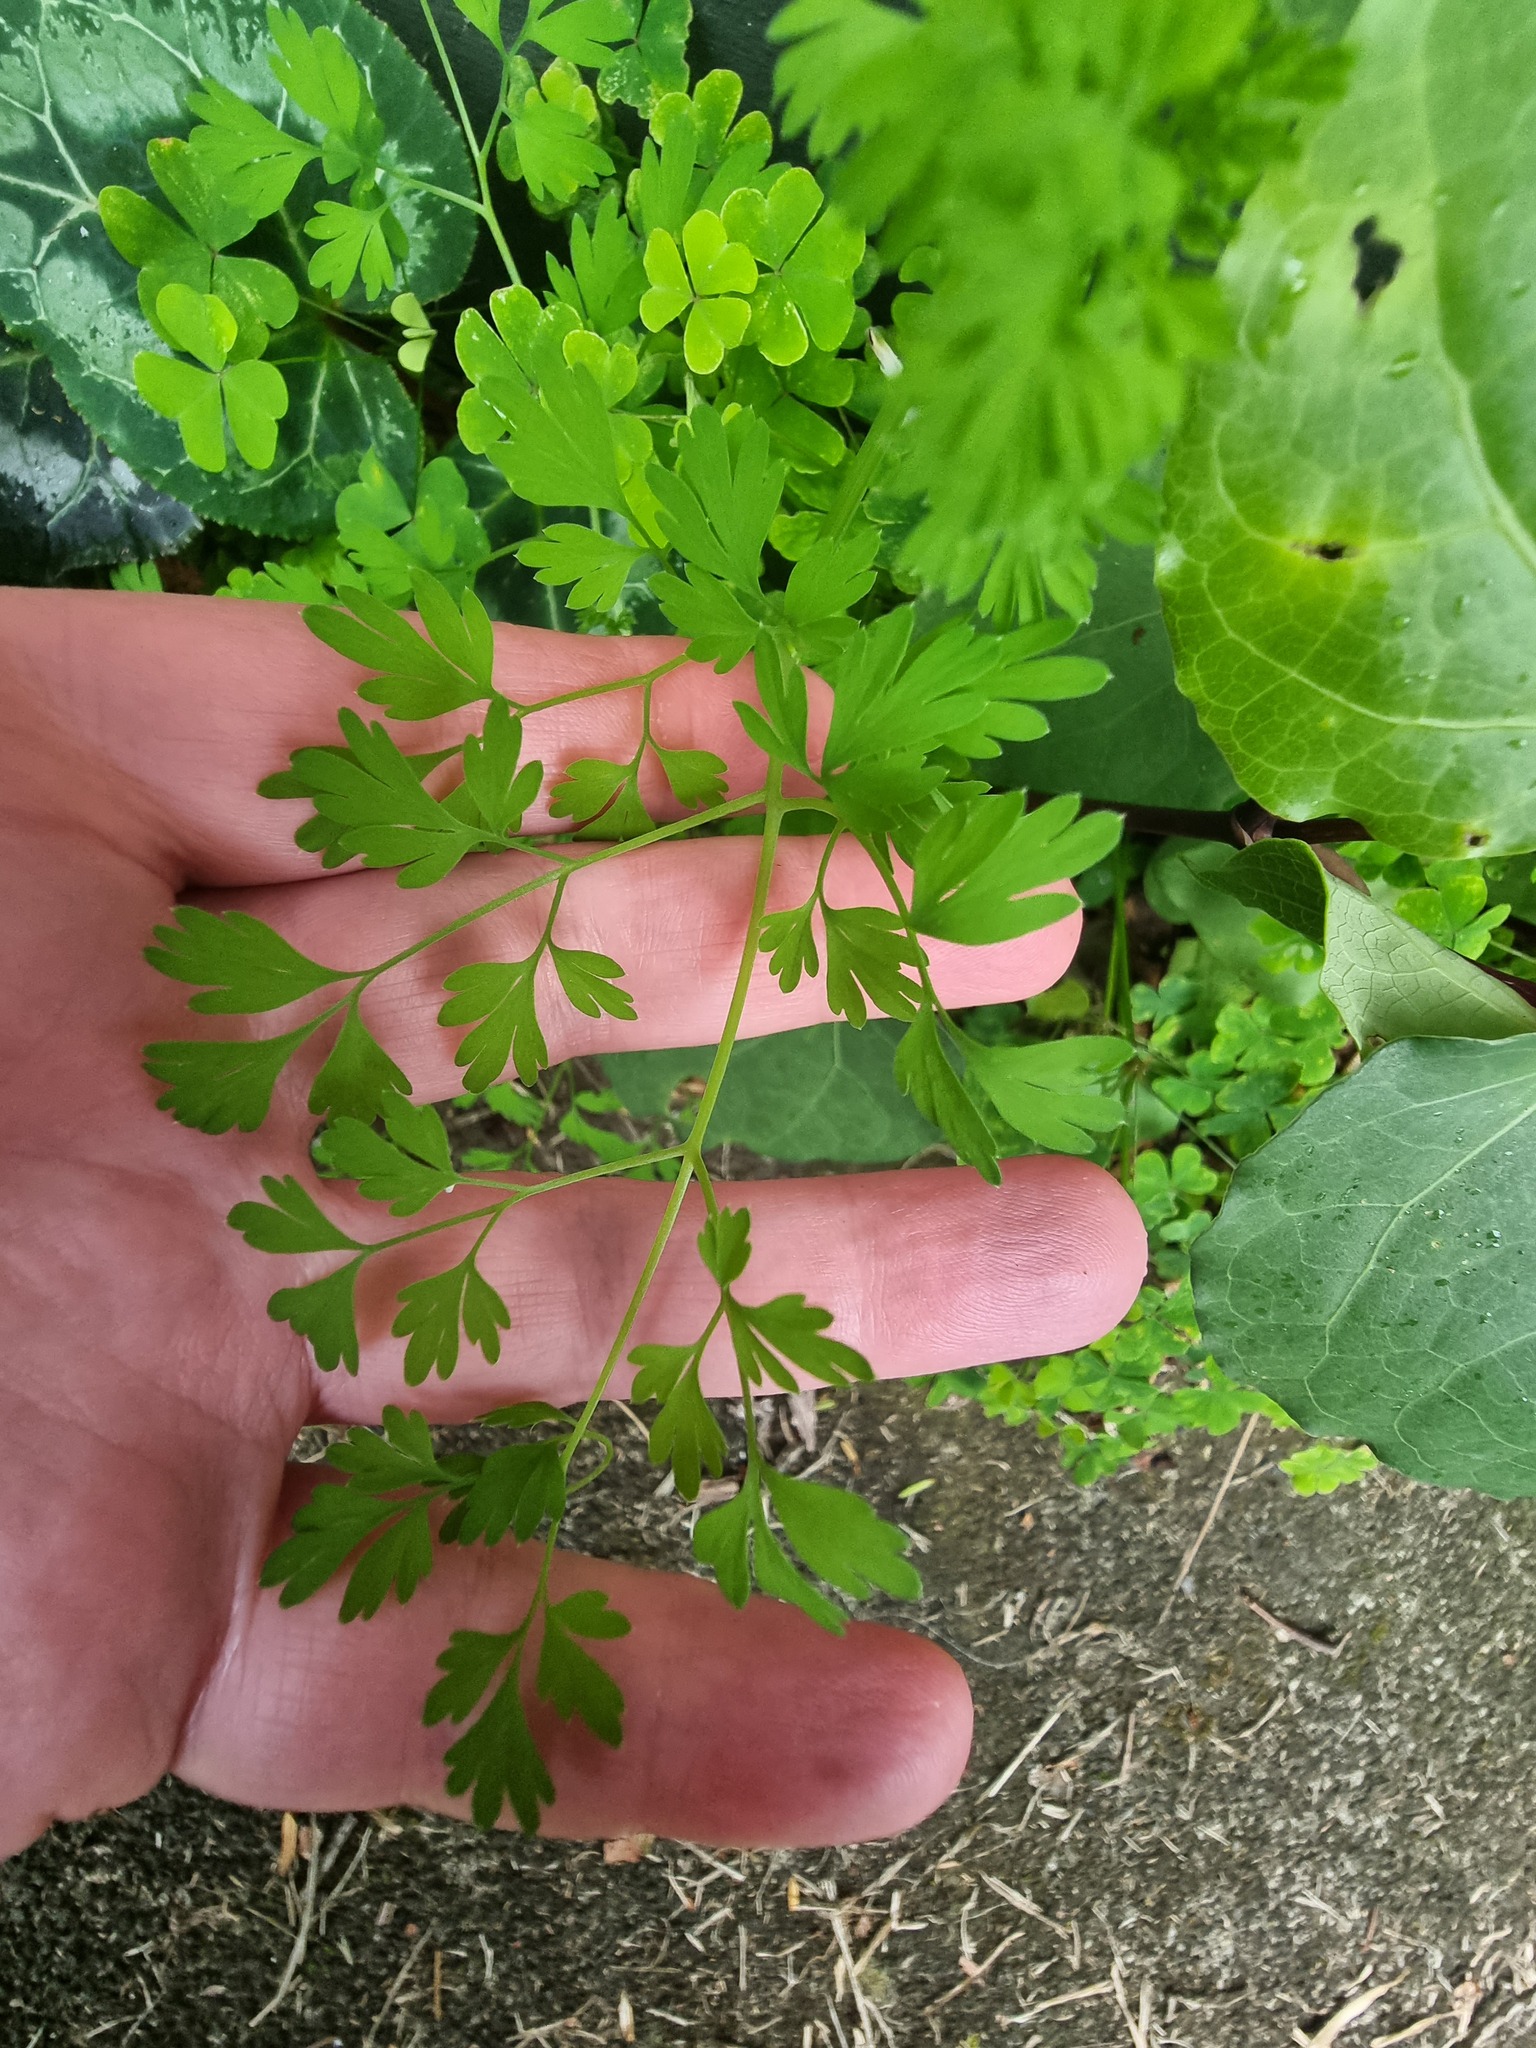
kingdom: Plantae
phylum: Tracheophyta
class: Magnoliopsida
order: Ranunculales
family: Papaveraceae
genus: Fumaria
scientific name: Fumaria muralis
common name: Common ramping-fumitory
